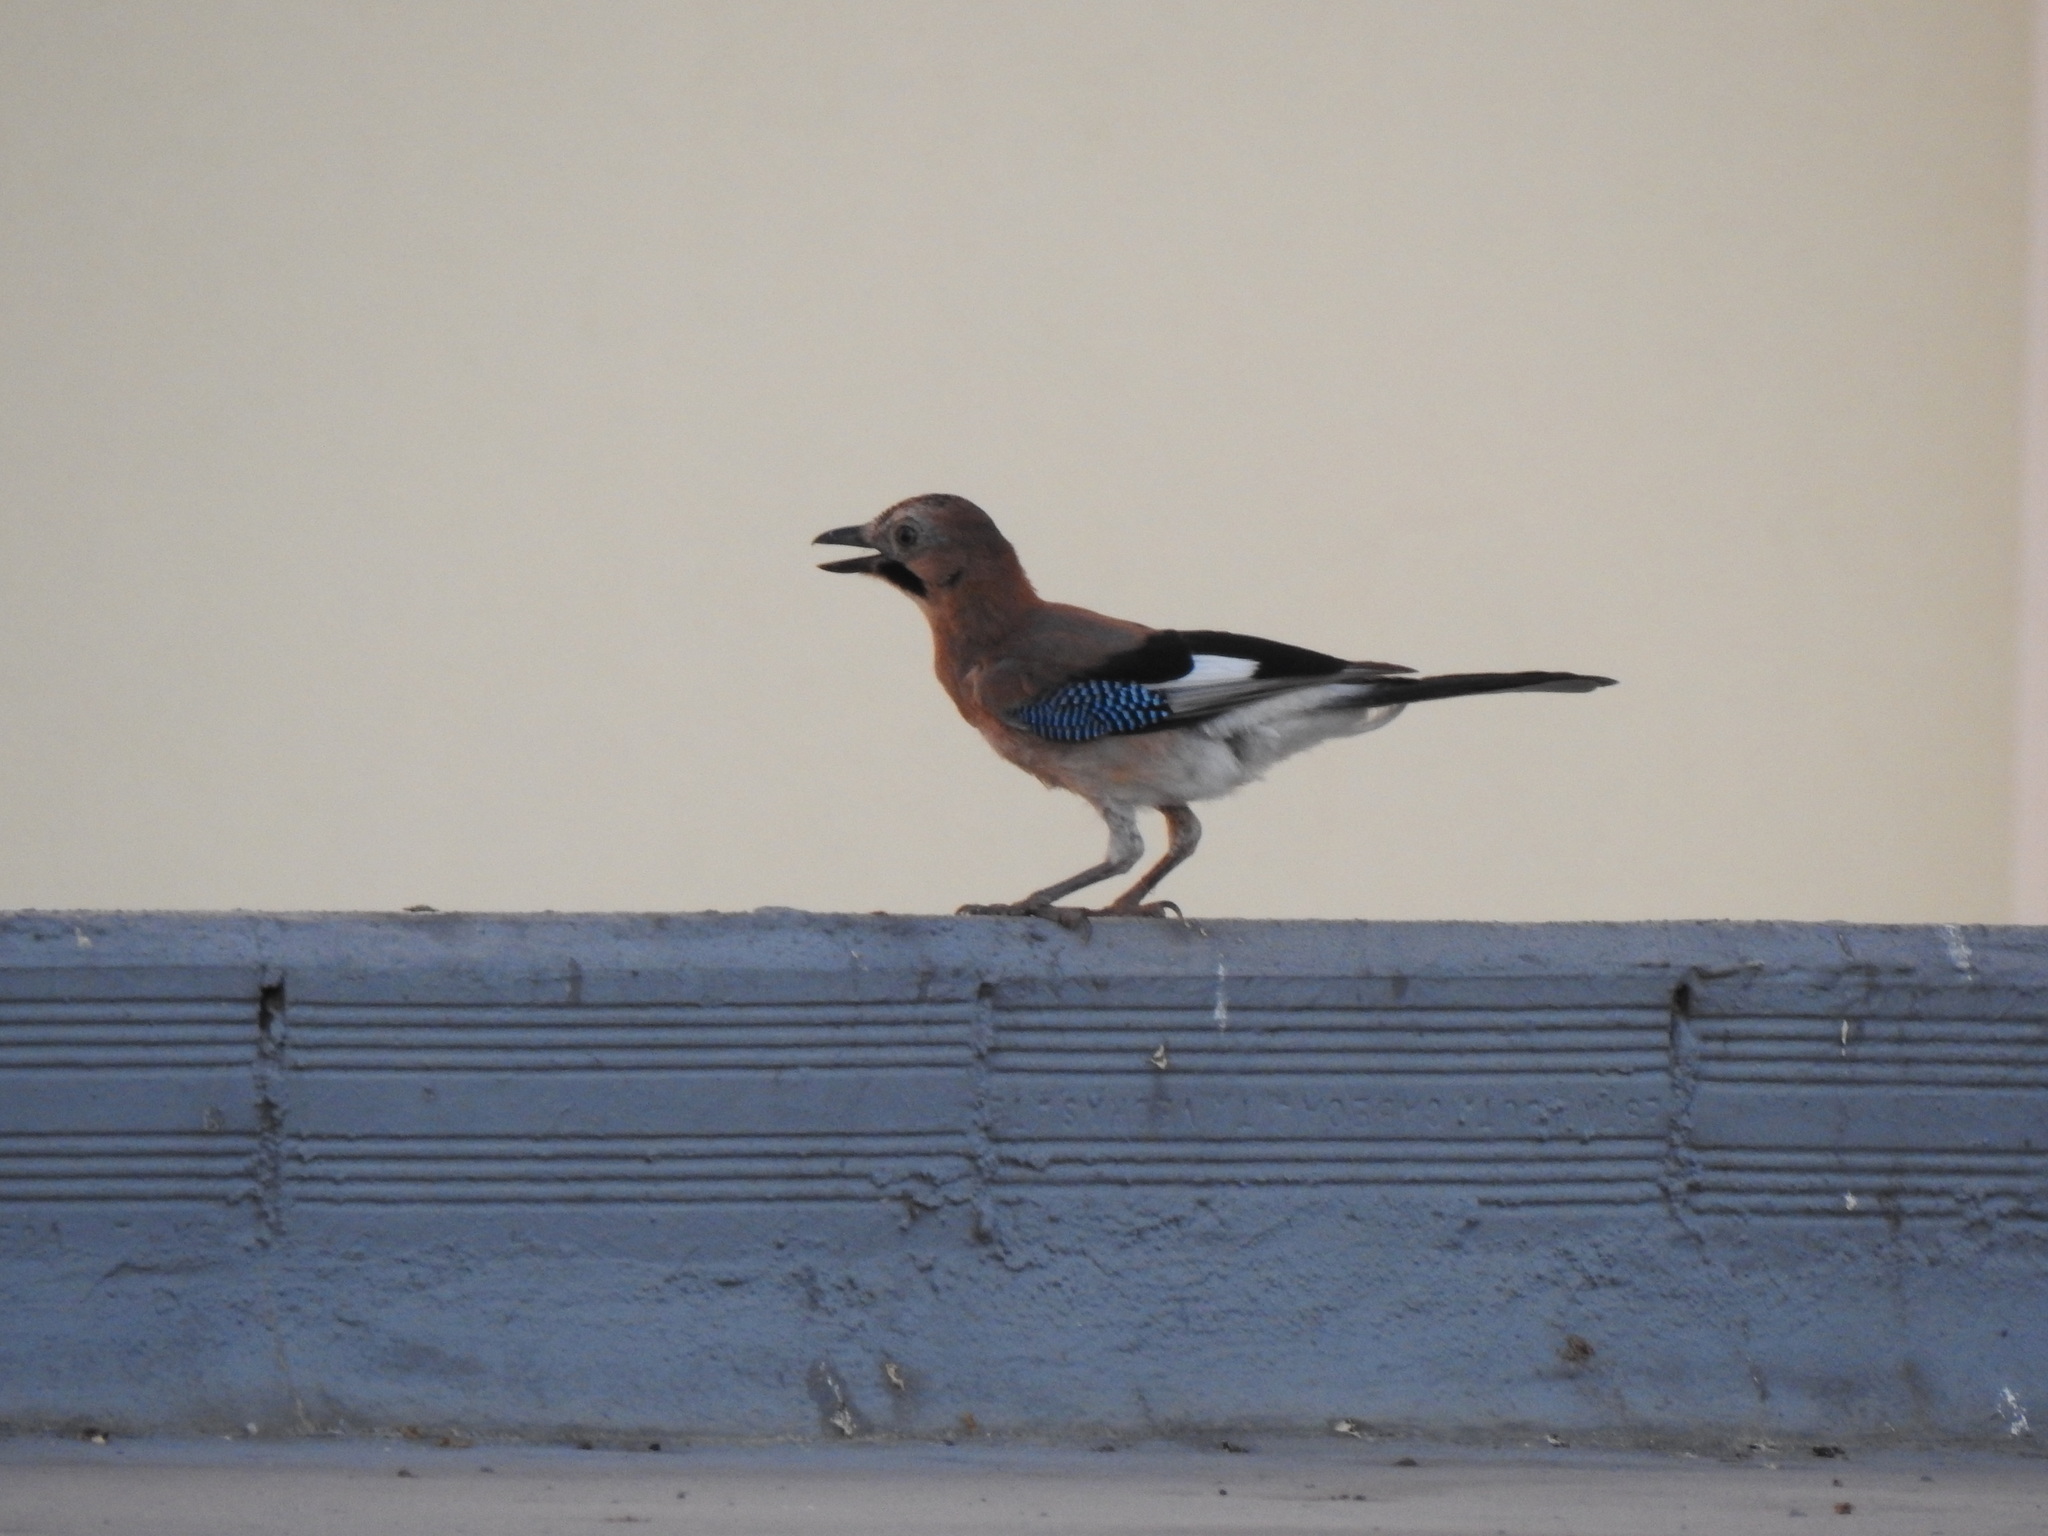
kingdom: Animalia
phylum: Chordata
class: Aves
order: Passeriformes
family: Corvidae
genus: Garrulus
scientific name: Garrulus glandarius
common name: Eurasian jay
